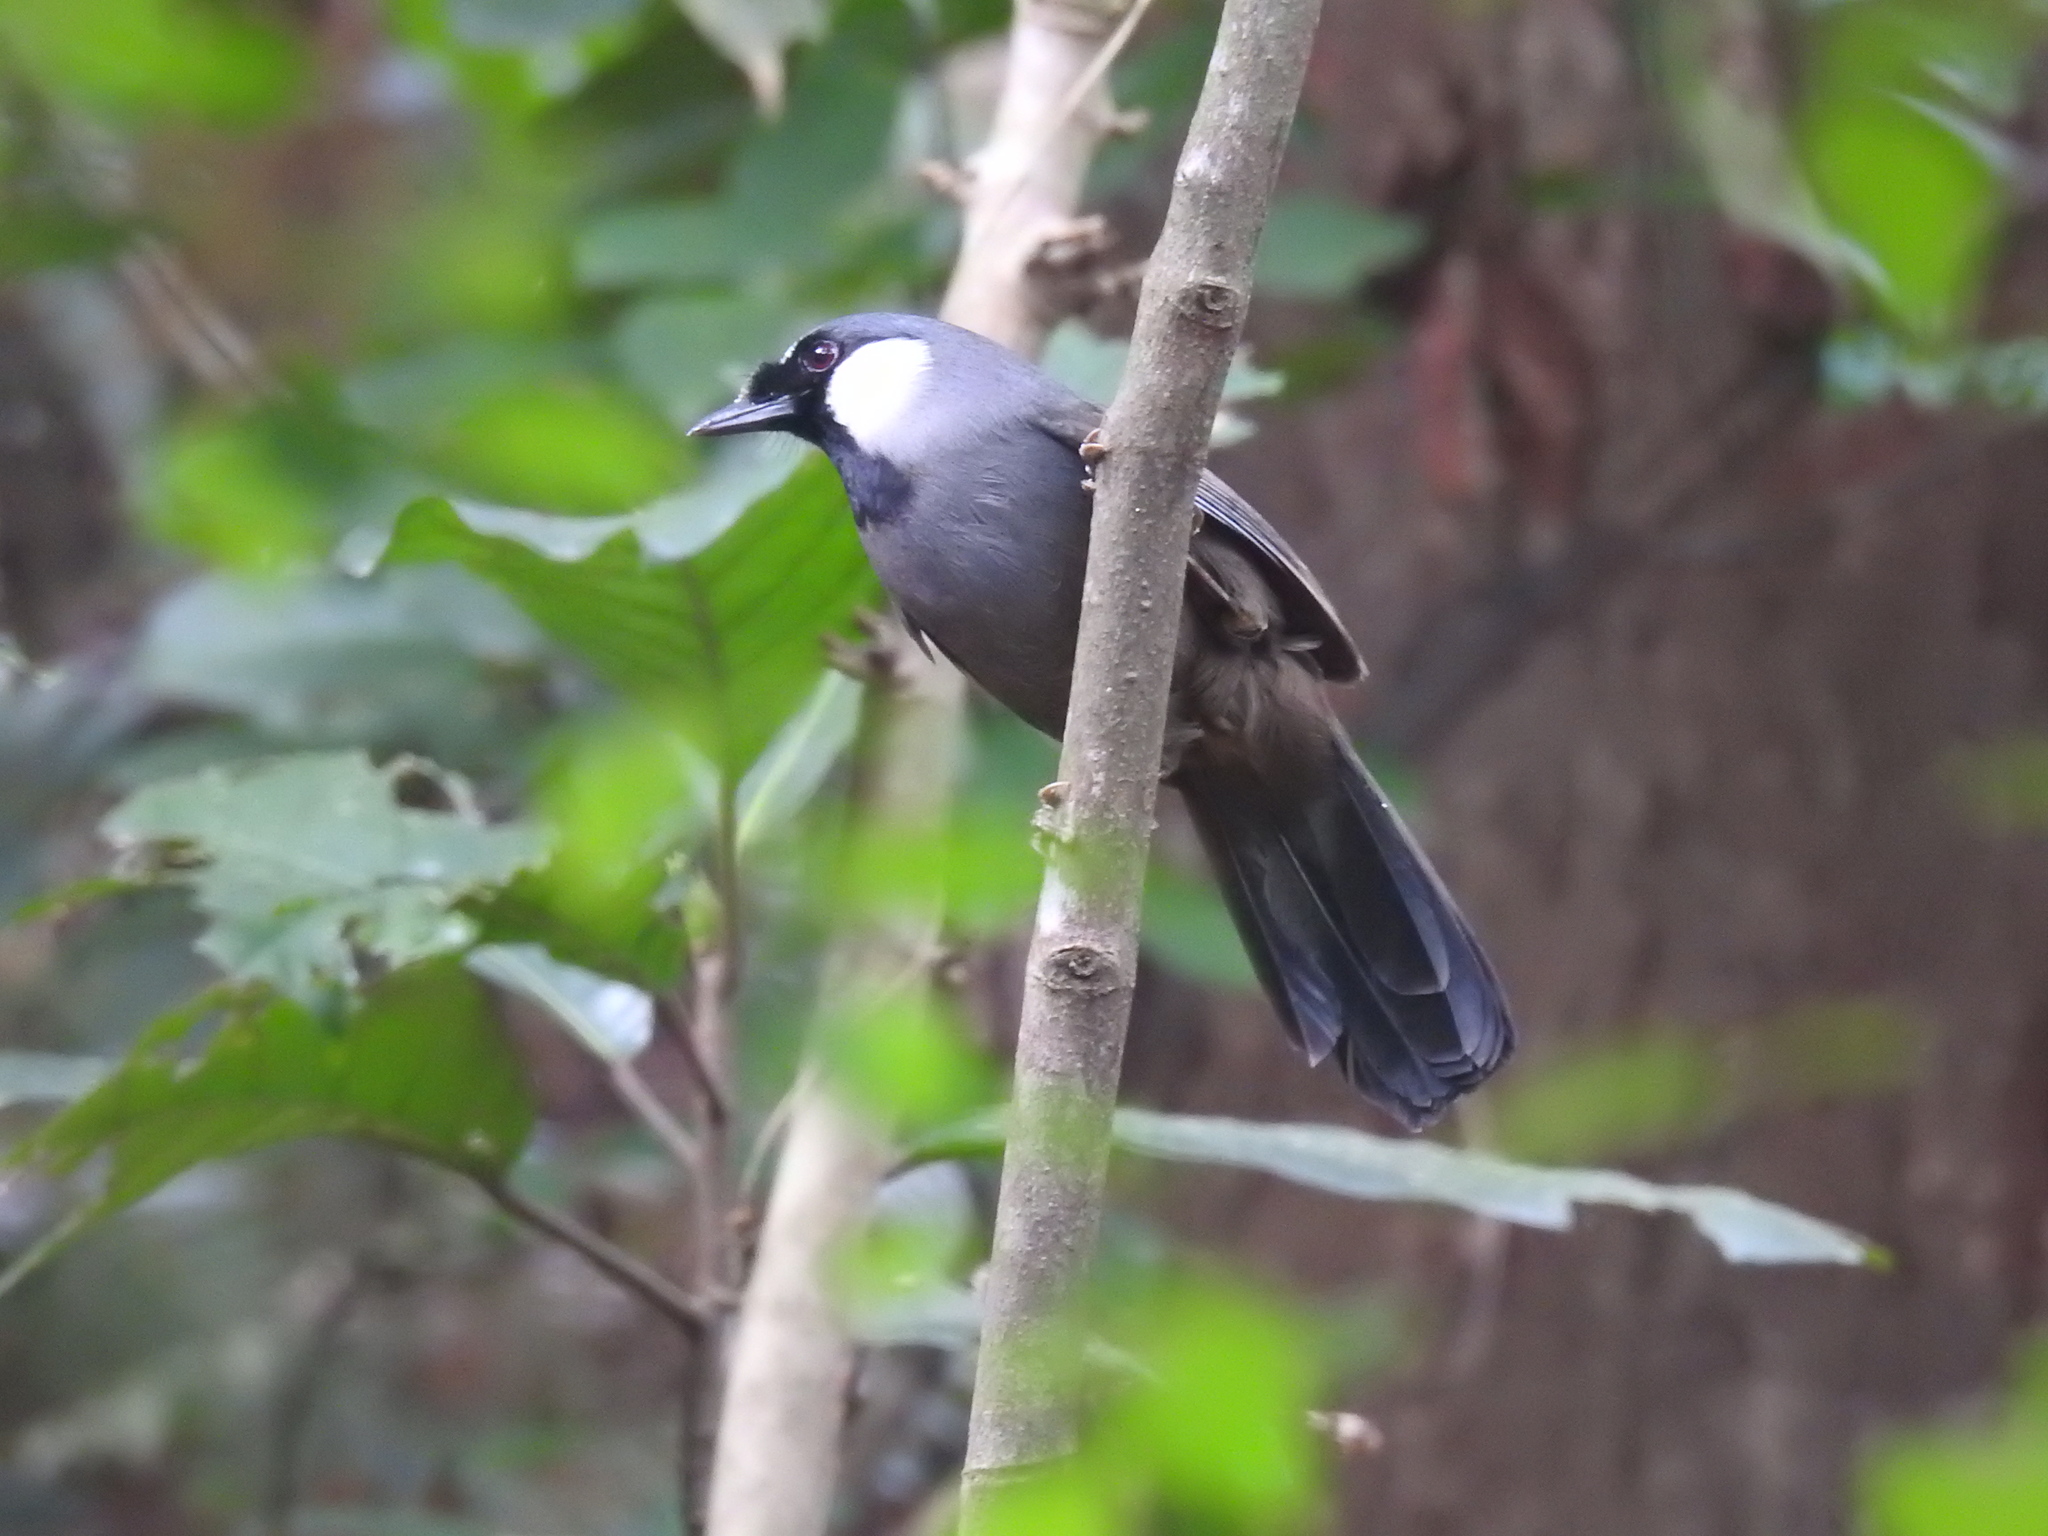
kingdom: Animalia
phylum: Chordata
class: Aves
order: Passeriformes
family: Leiothrichidae
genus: Garrulax
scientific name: Garrulax chinensis
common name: Black-throated laughingthrush
